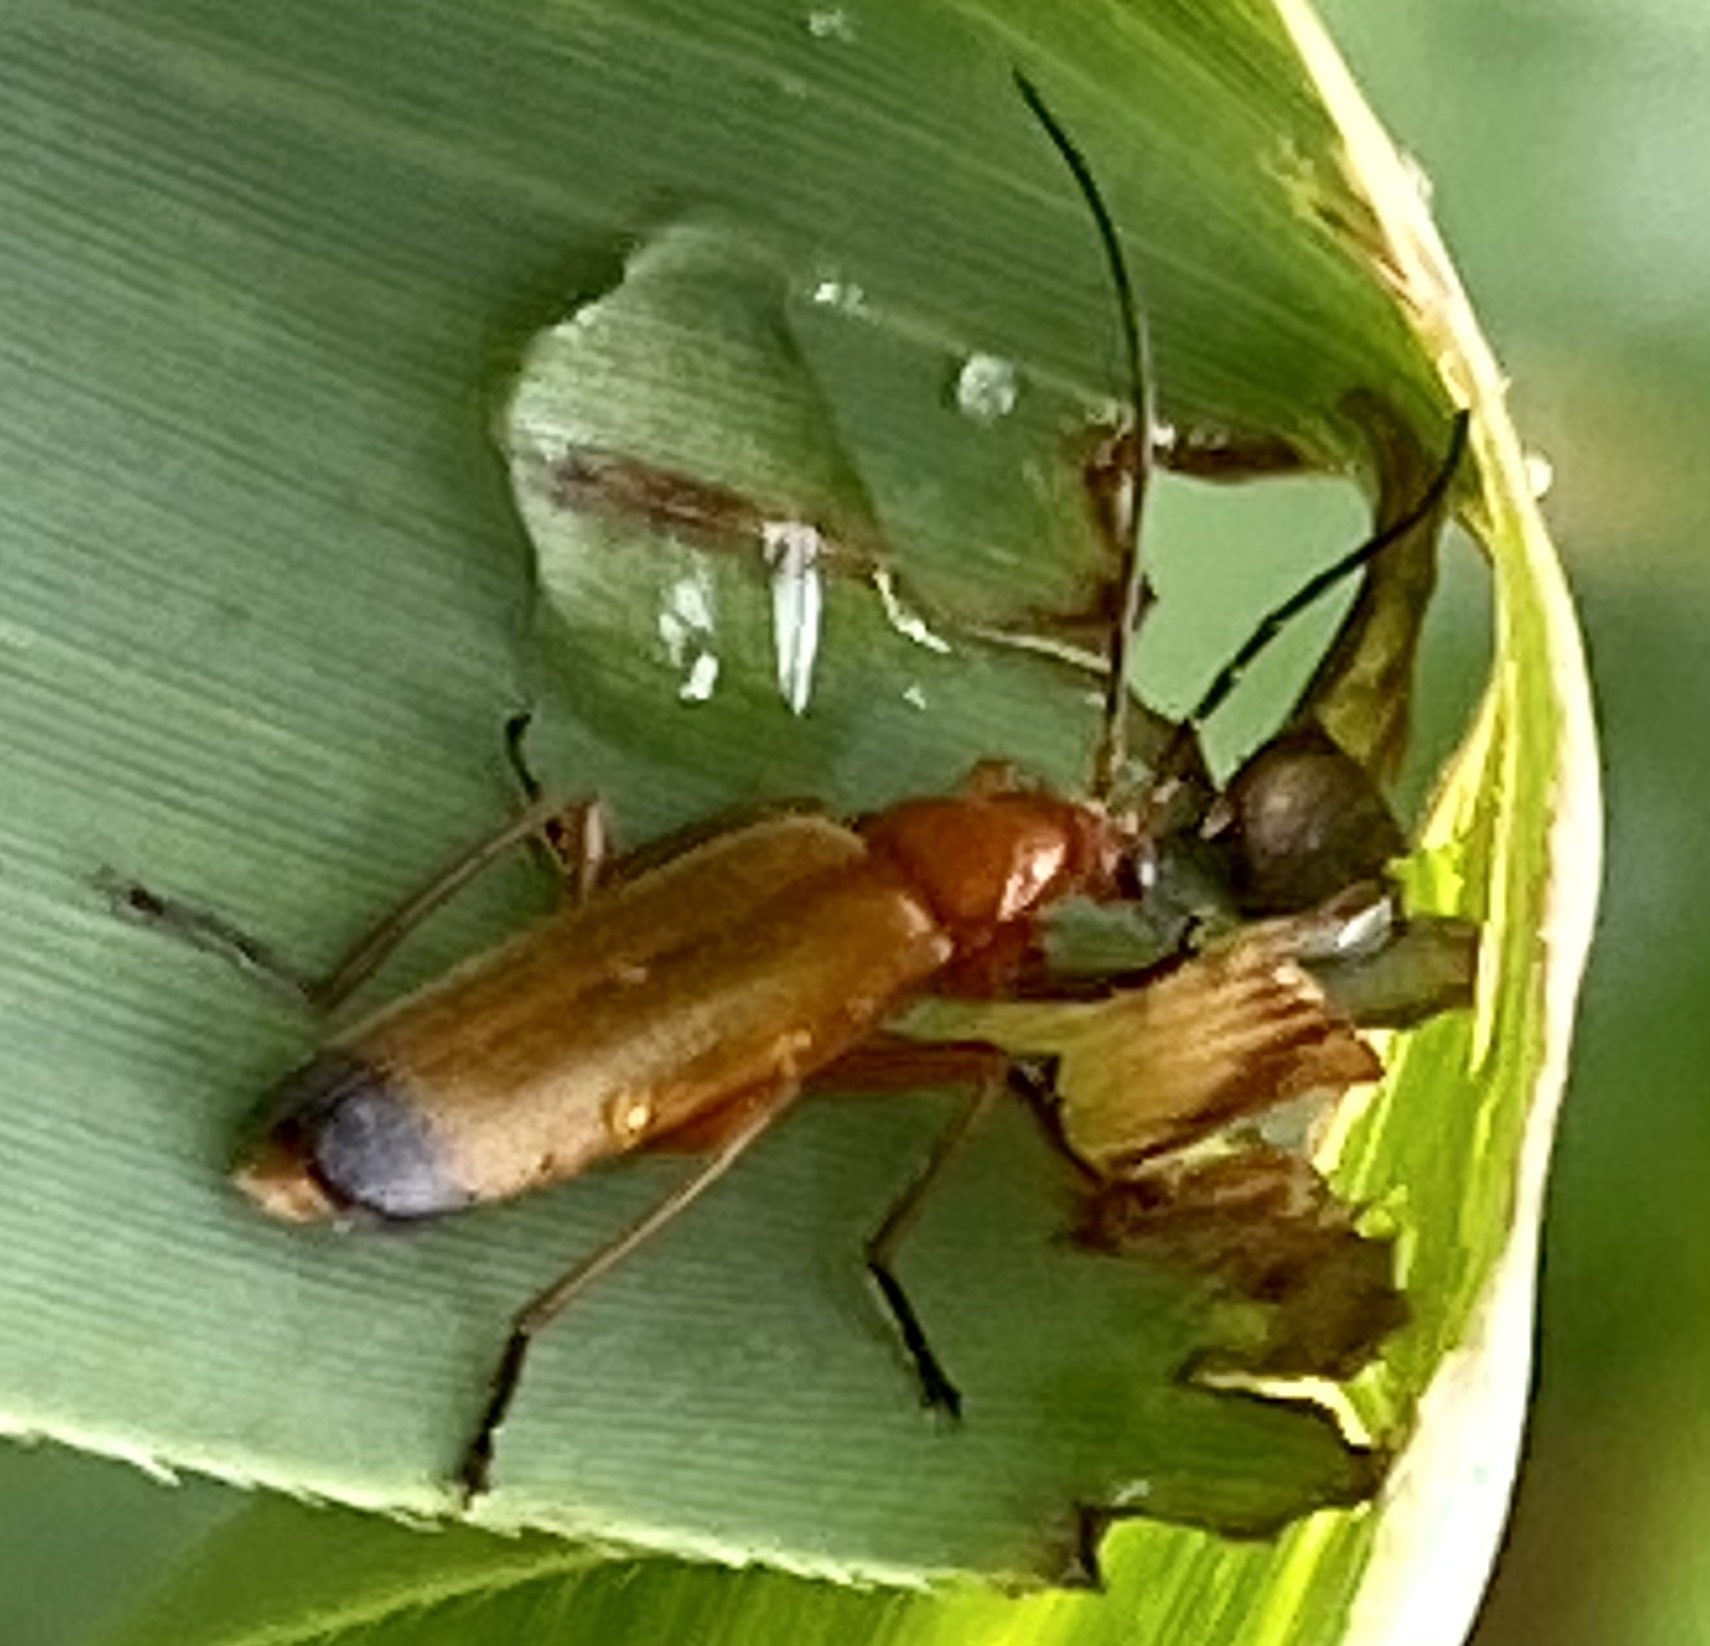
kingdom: Animalia
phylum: Arthropoda
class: Insecta
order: Coleoptera
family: Cantharidae
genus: Rhagonycha
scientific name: Rhagonycha fulva
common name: Common red soldier beetle
